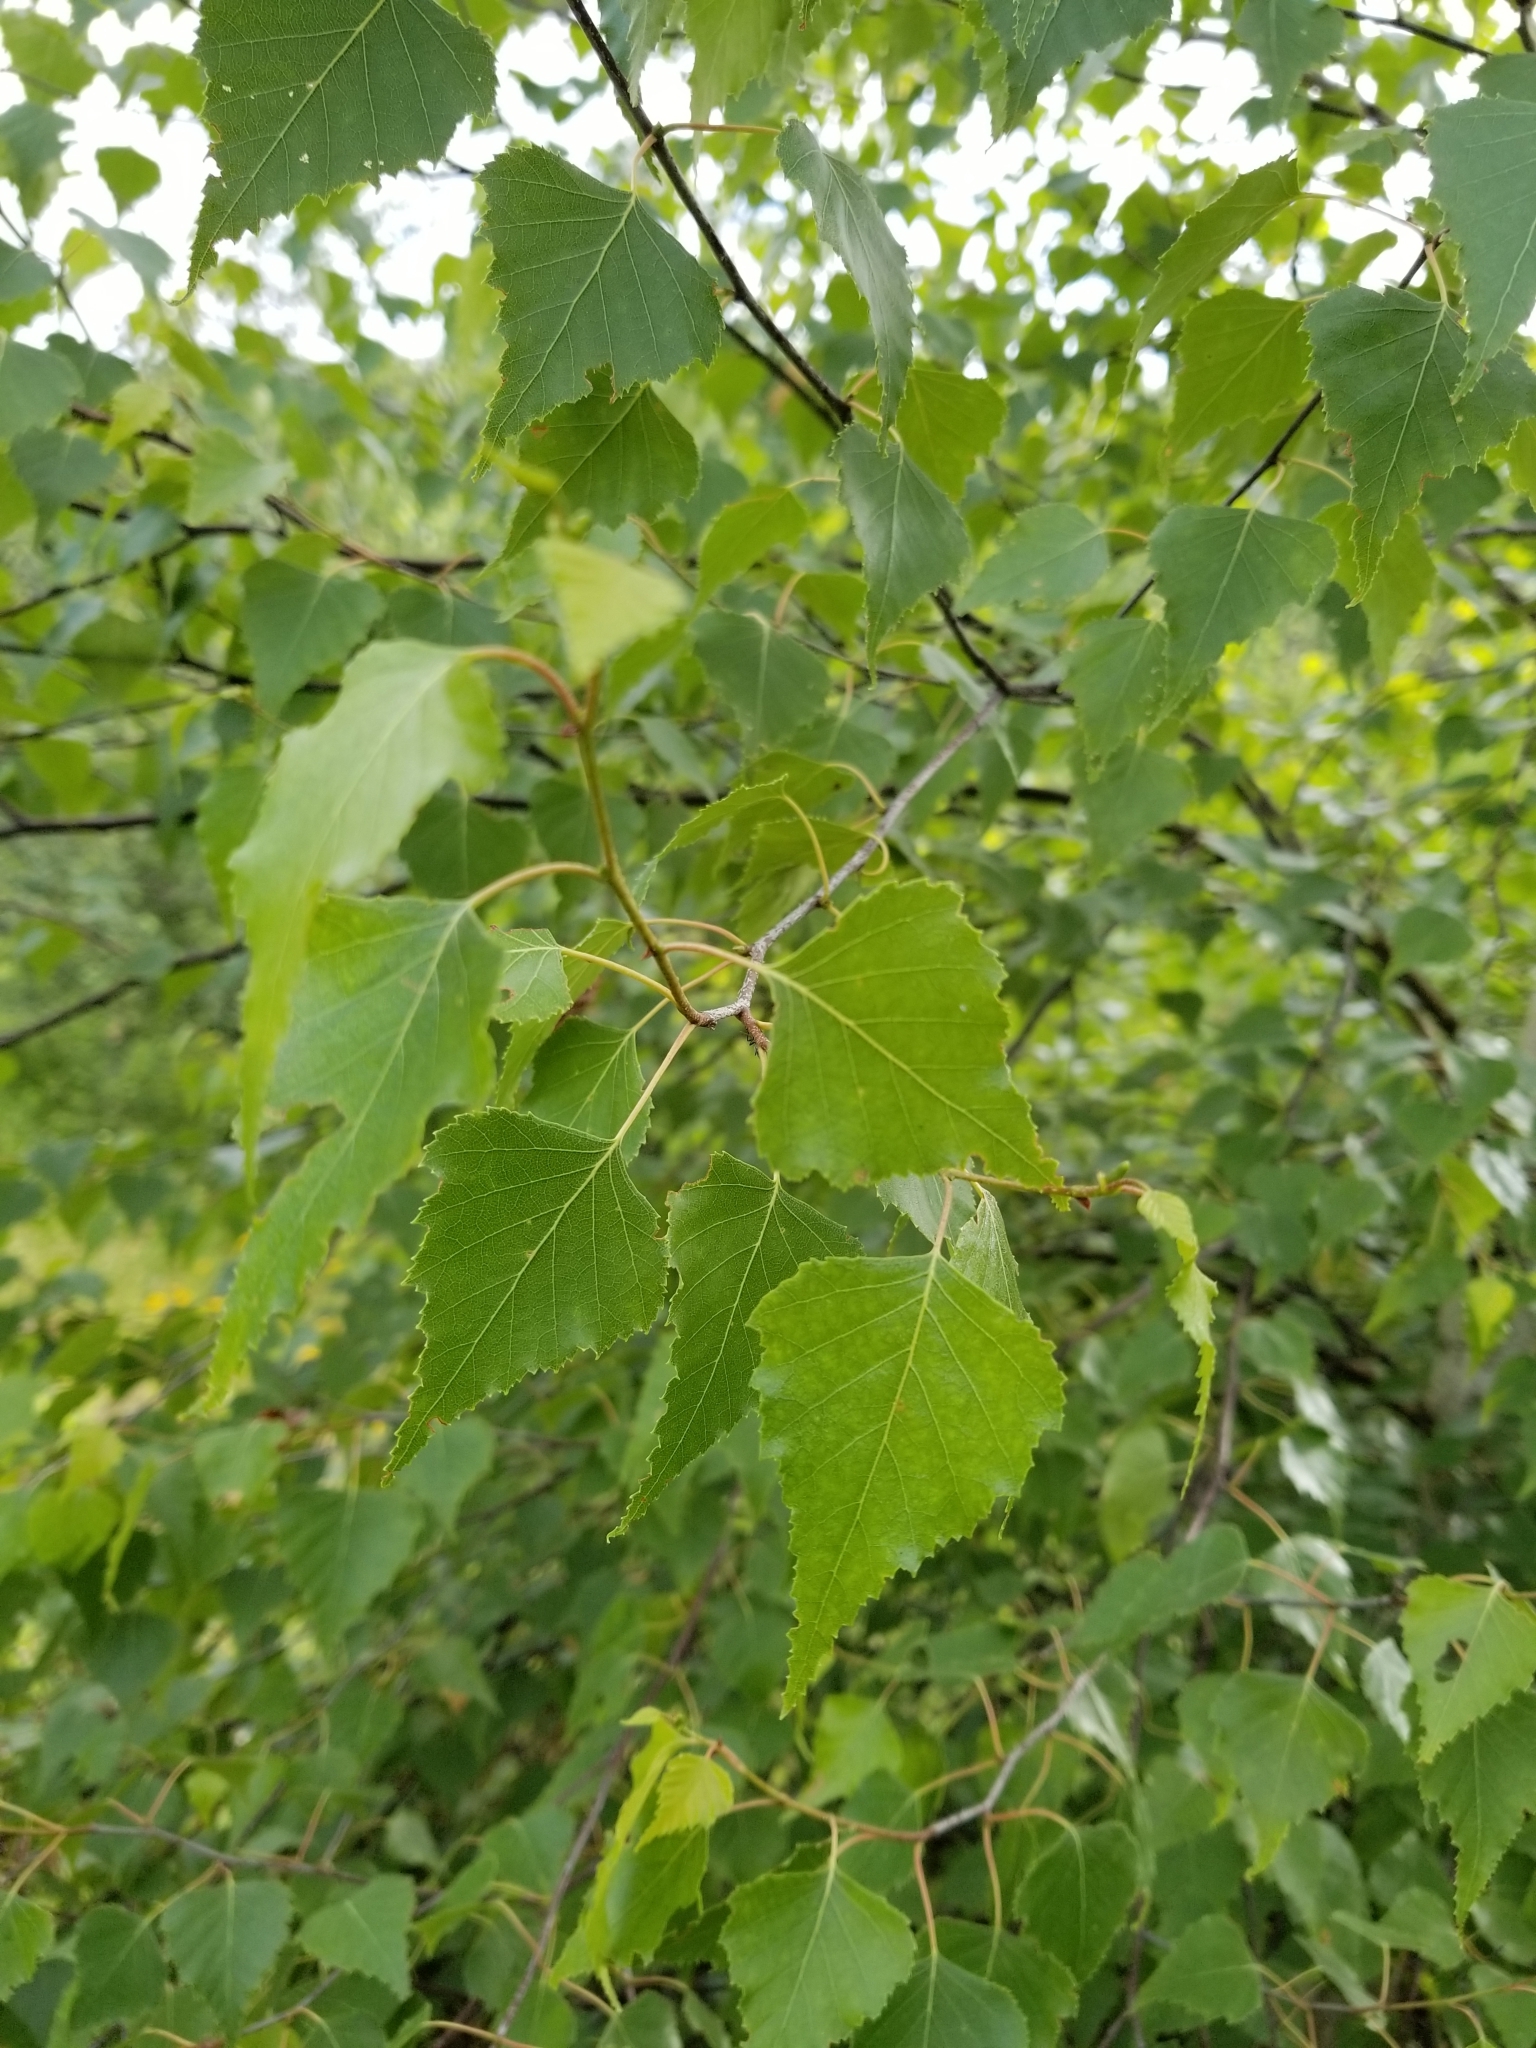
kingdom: Plantae
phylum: Tracheophyta
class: Magnoliopsida
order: Fagales
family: Betulaceae
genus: Betula
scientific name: Betula populifolia
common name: Fire birch
